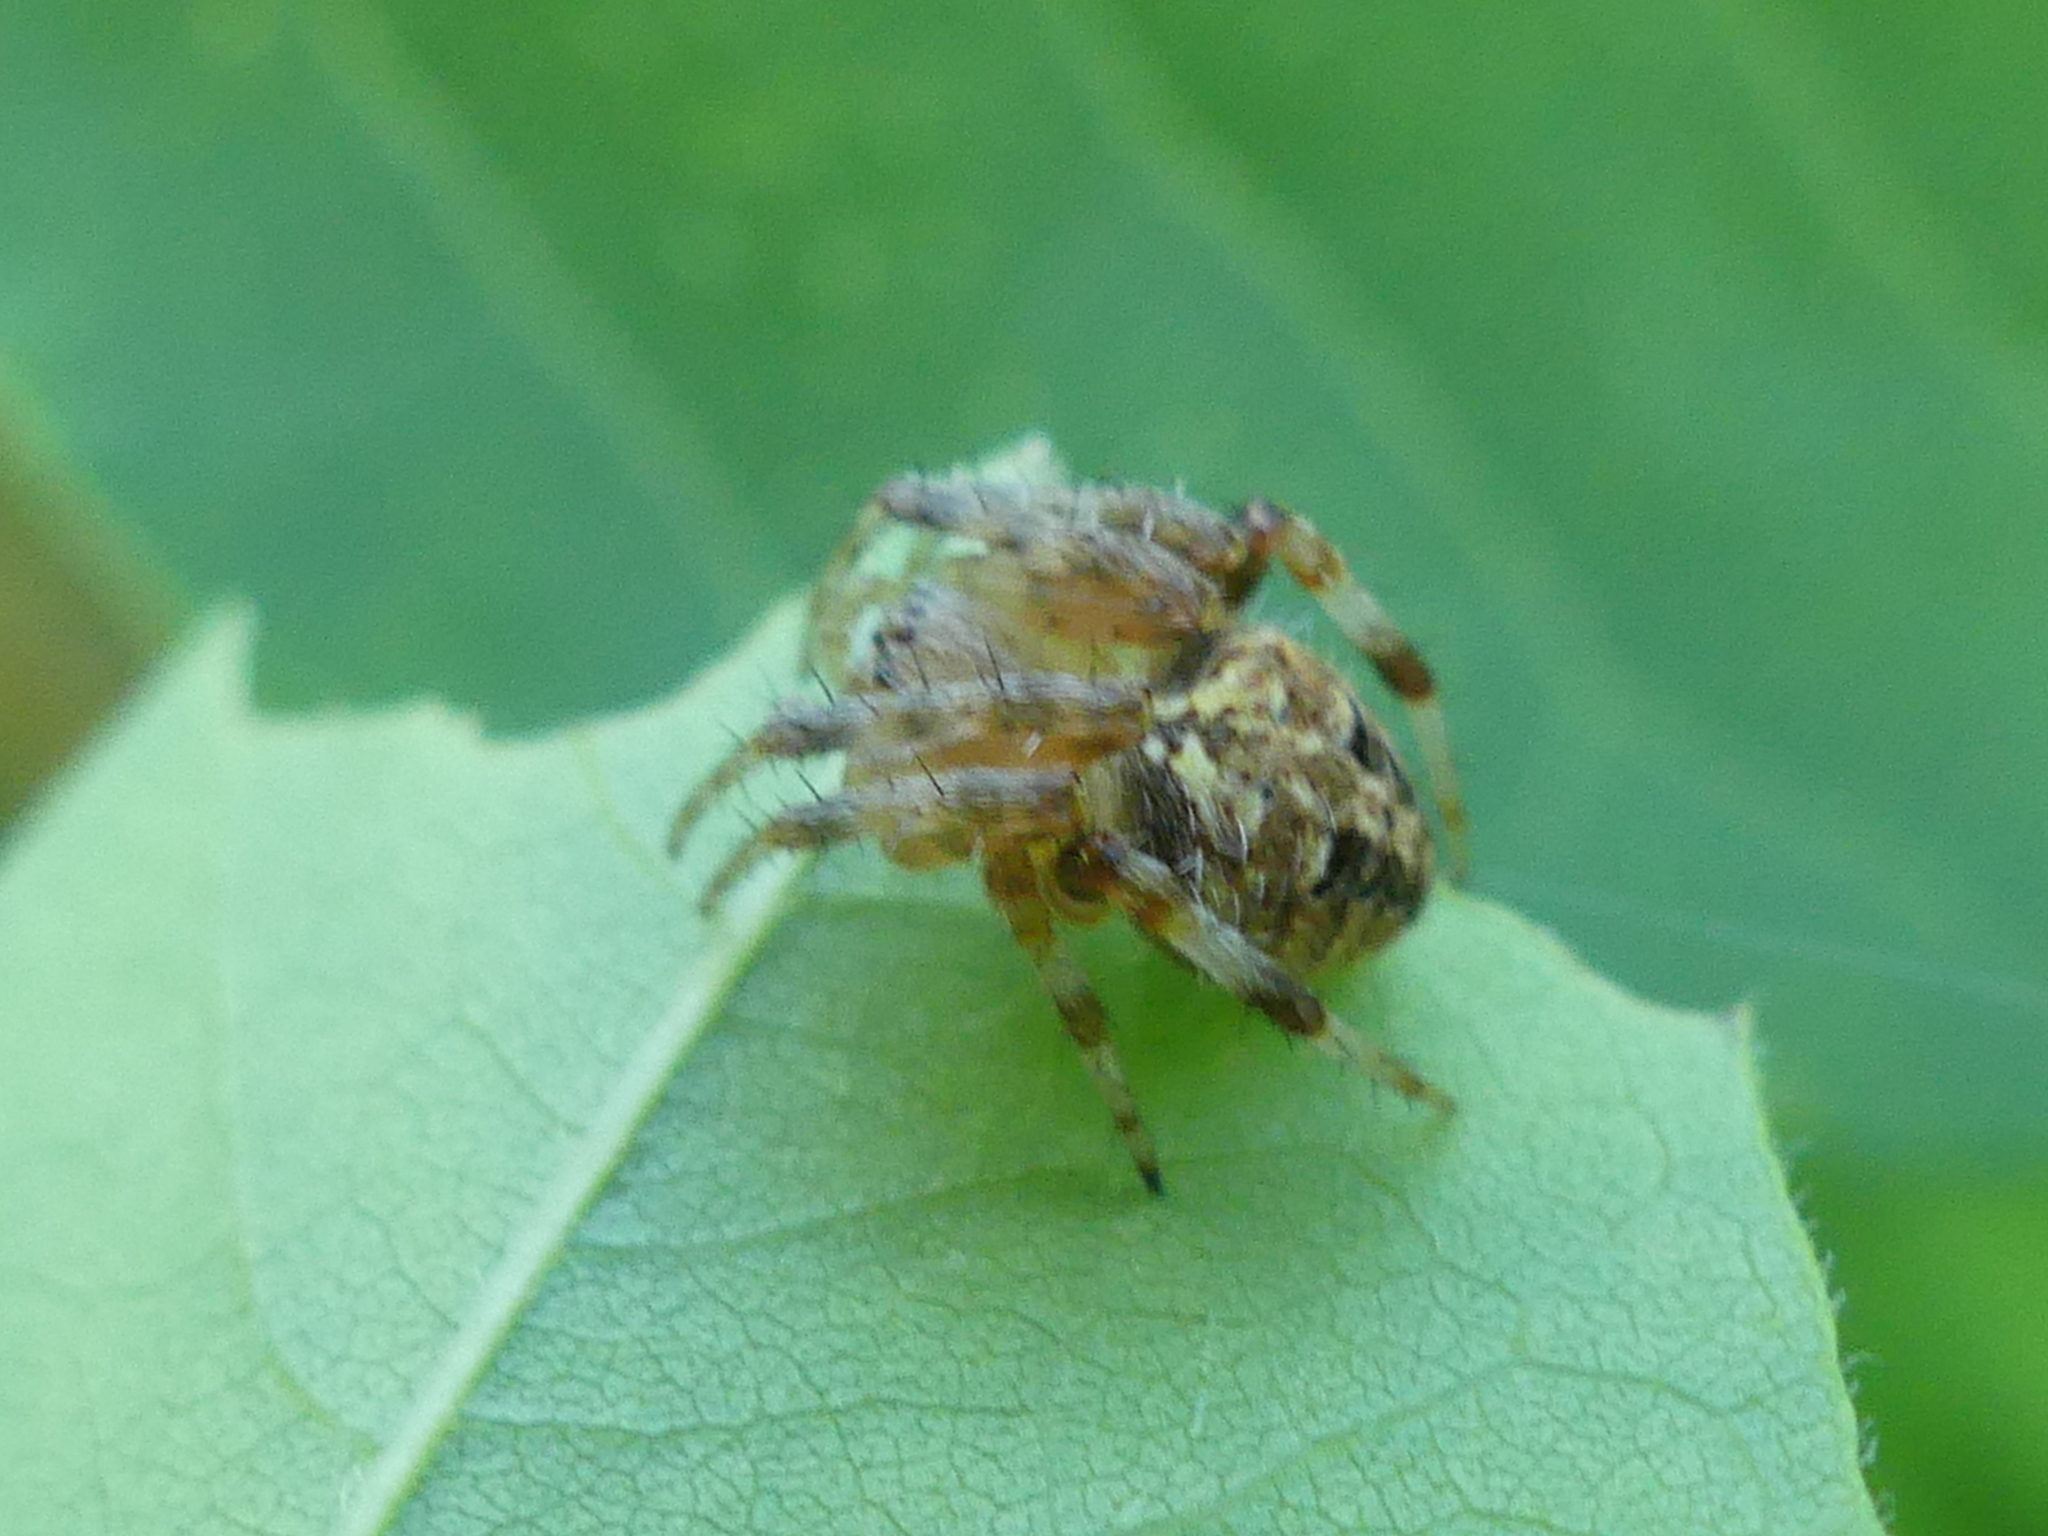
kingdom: Animalia
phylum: Arthropoda
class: Arachnida
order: Araneae
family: Araneidae
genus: Neoscona
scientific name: Neoscona arabesca
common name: Orb weavers
